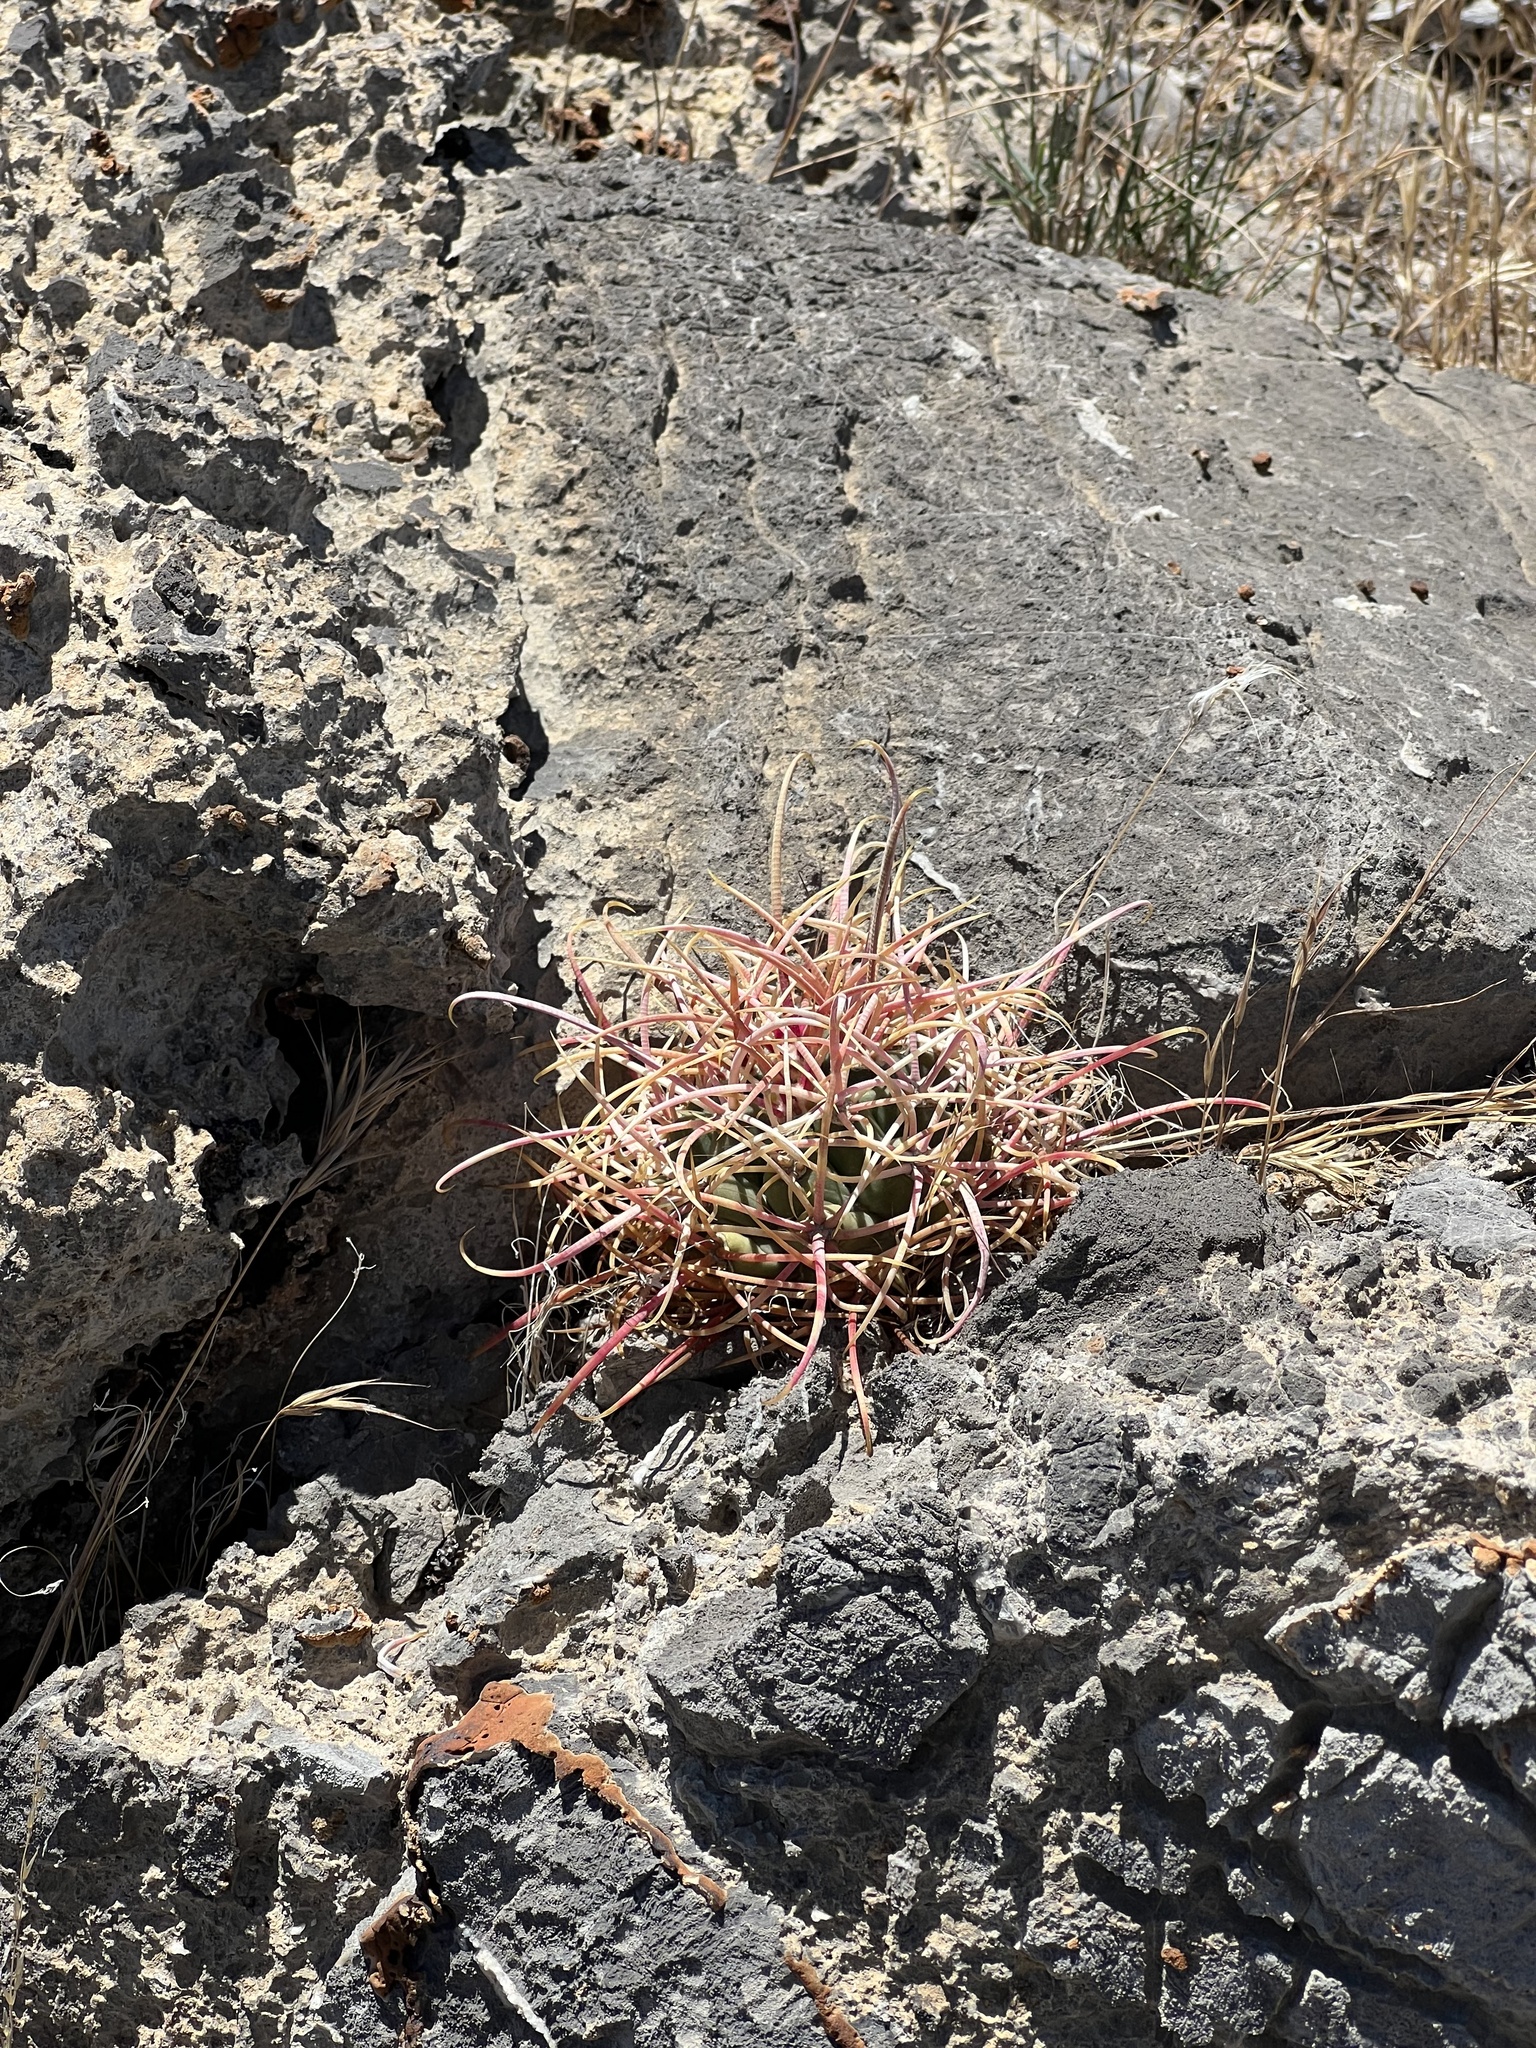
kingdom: Plantae
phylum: Tracheophyta
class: Magnoliopsida
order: Caryophyllales
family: Cactaceae
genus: Ferocactus
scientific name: Ferocactus cylindraceus
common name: California barrel cactus
